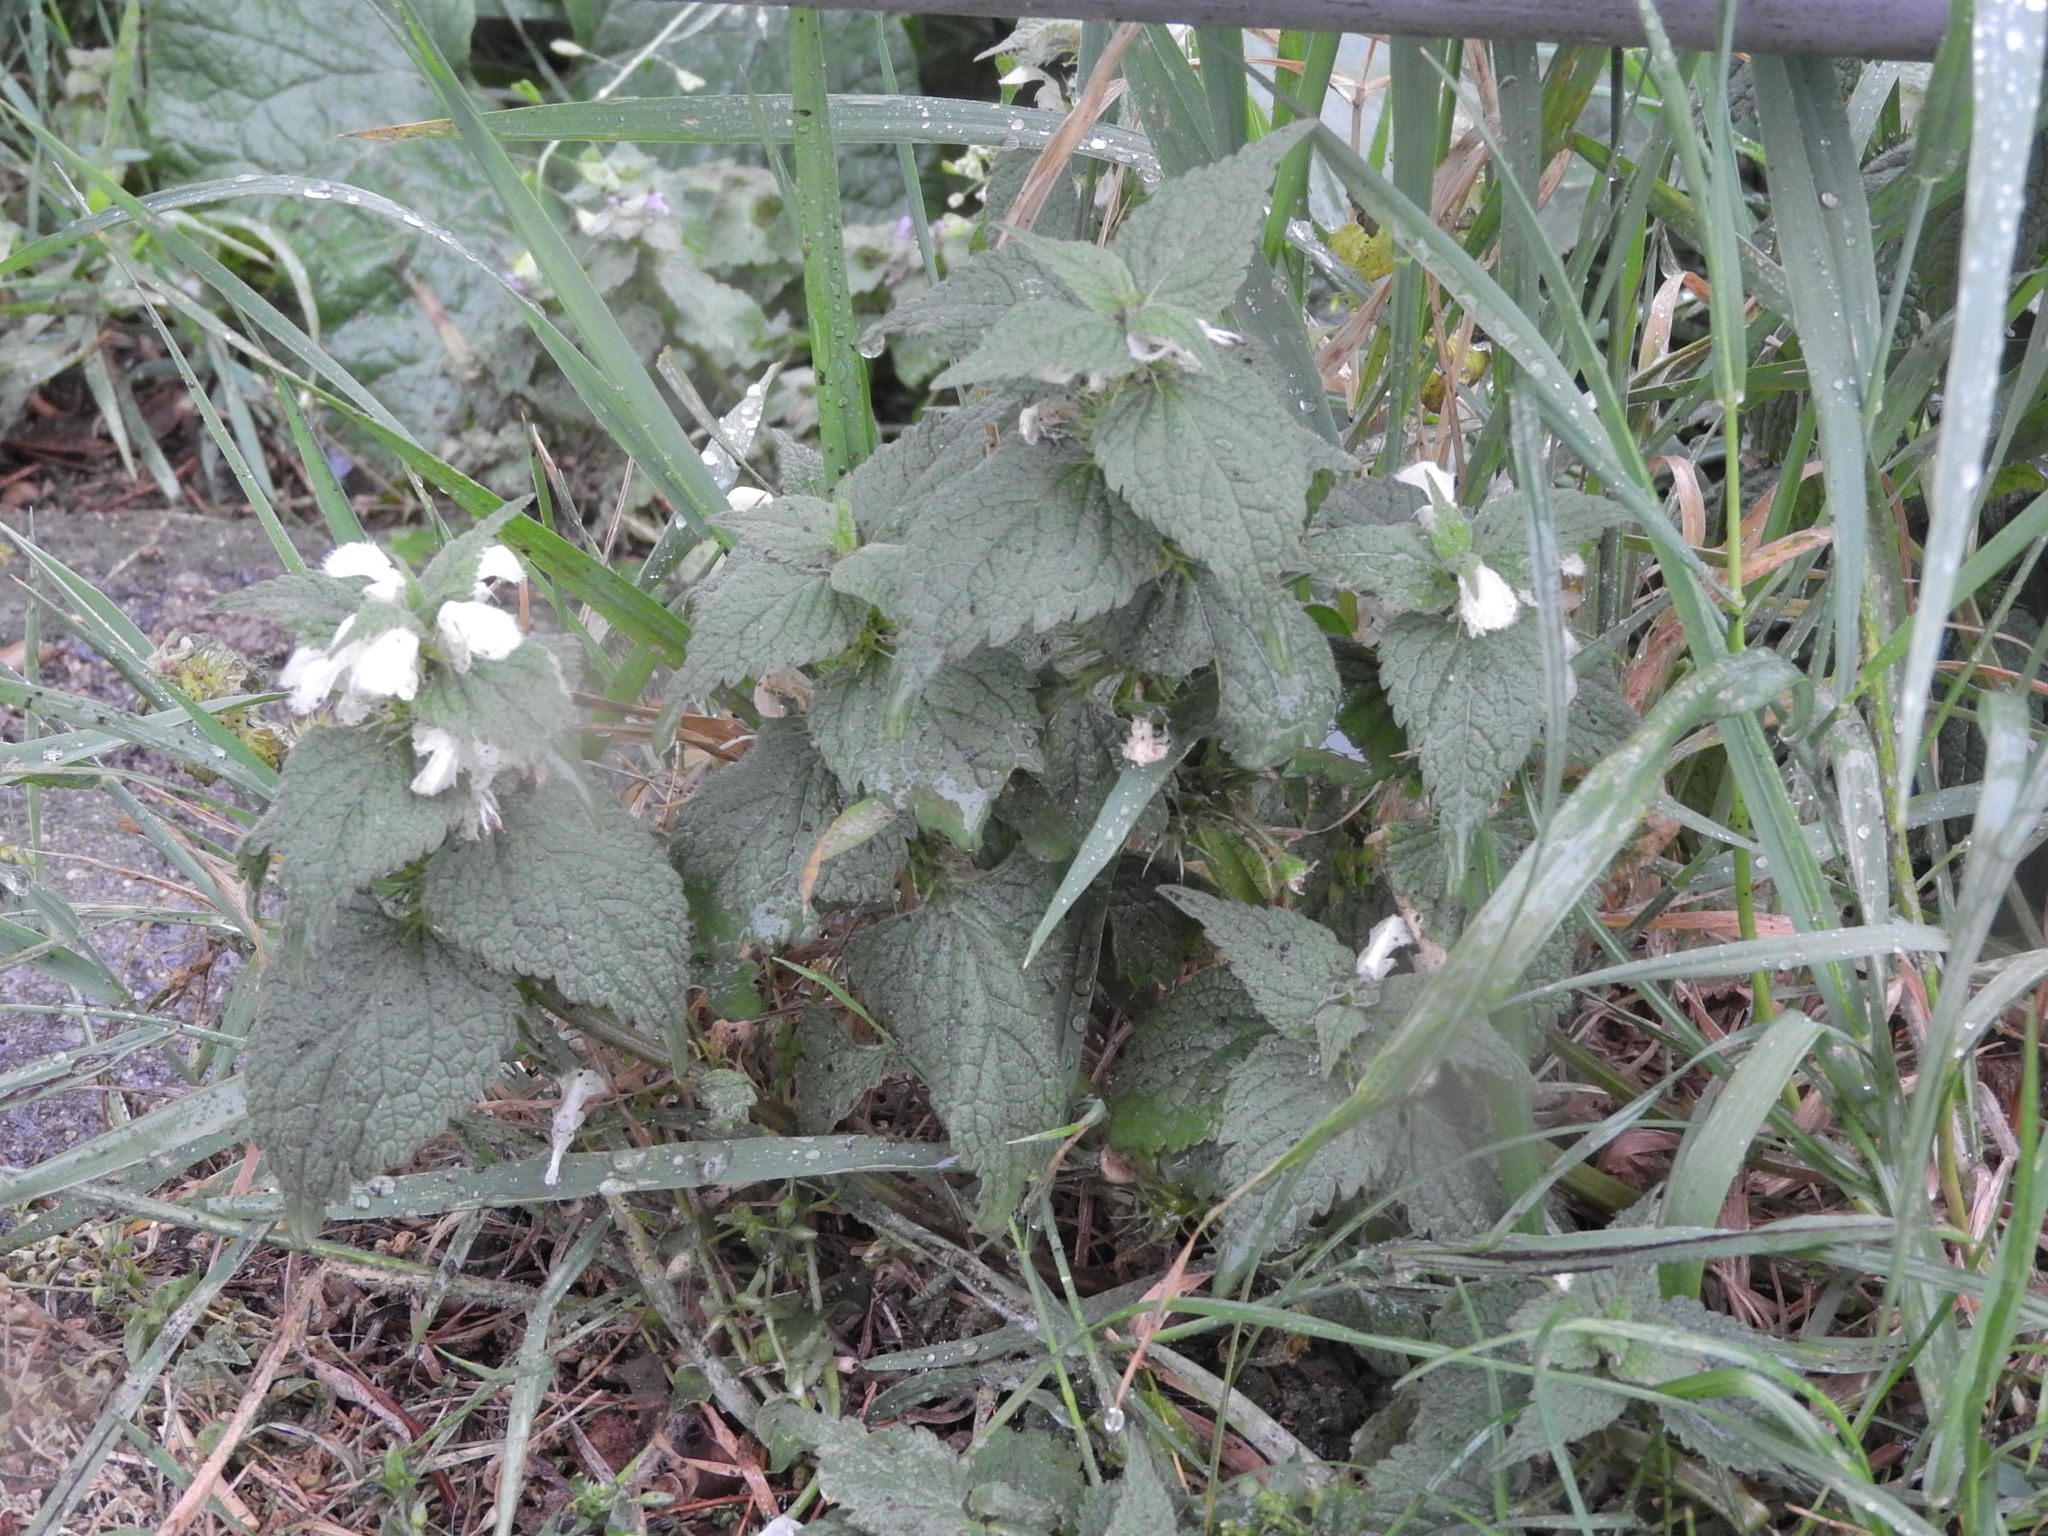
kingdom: Plantae
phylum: Tracheophyta
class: Magnoliopsida
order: Lamiales
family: Lamiaceae
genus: Lamium
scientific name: Lamium album
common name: White dead-nettle
